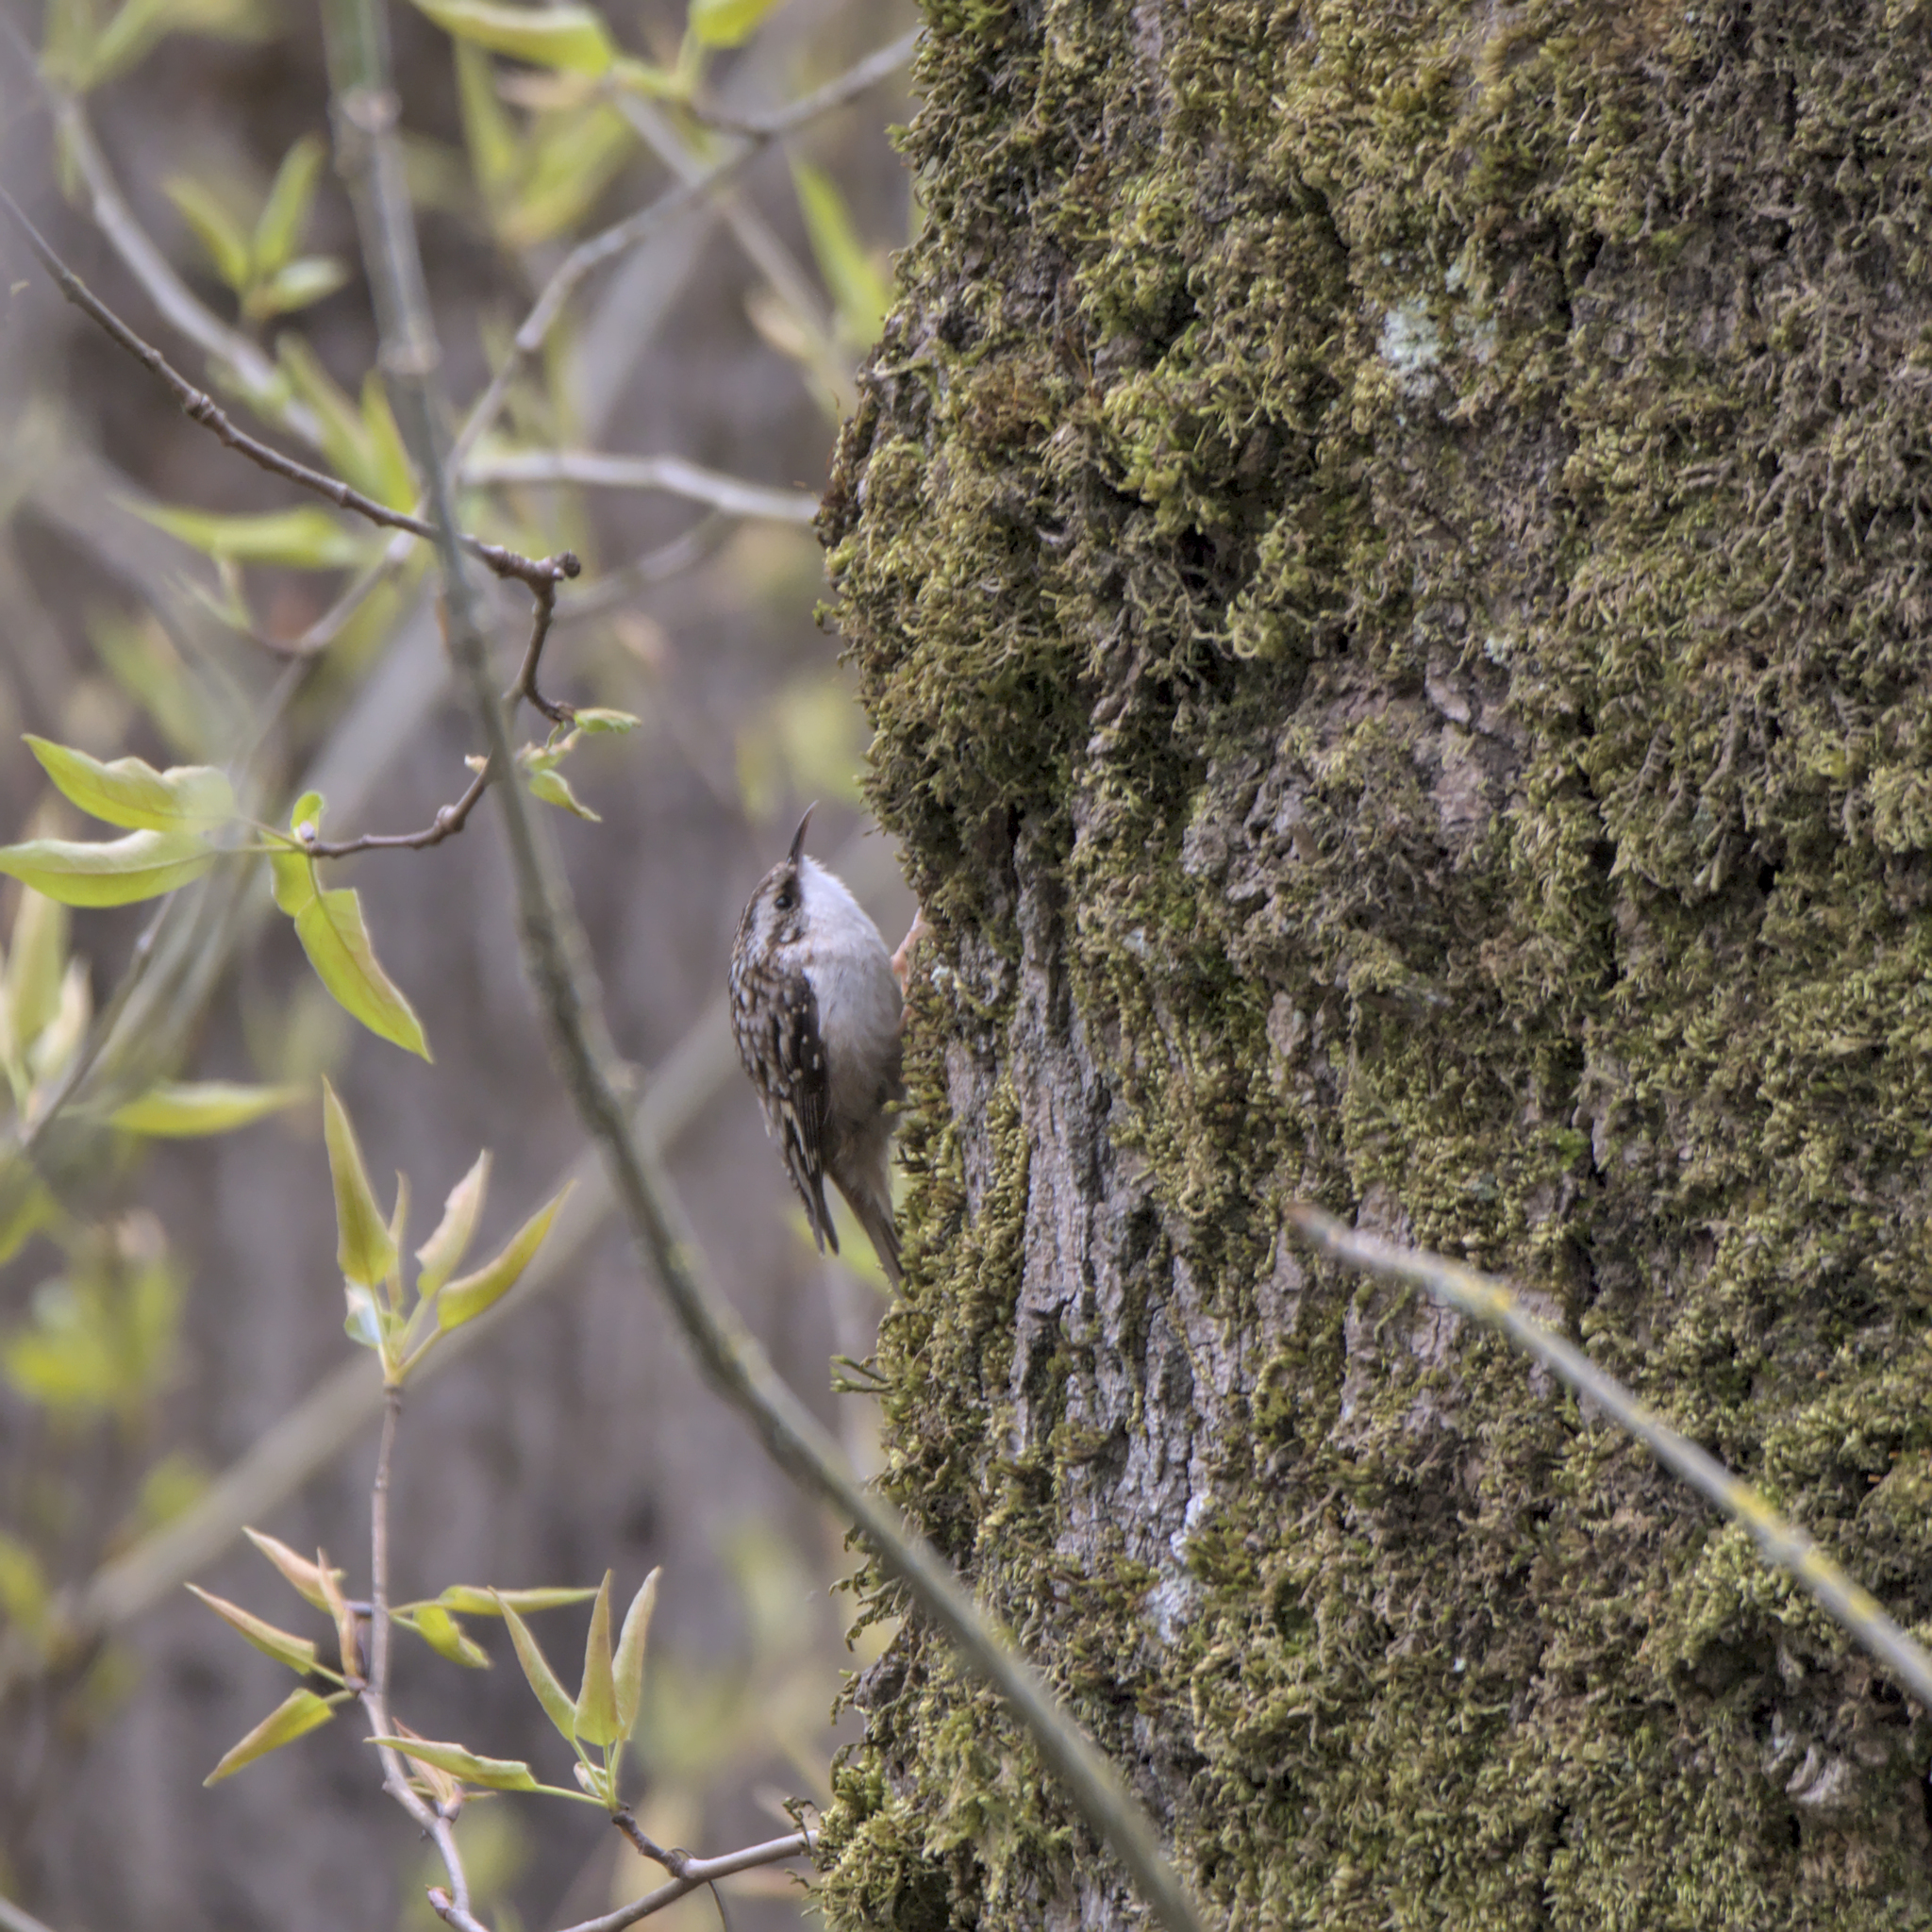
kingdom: Animalia
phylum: Chordata
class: Aves
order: Passeriformes
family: Certhiidae
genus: Certhia
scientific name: Certhia americana
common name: Brown creeper
